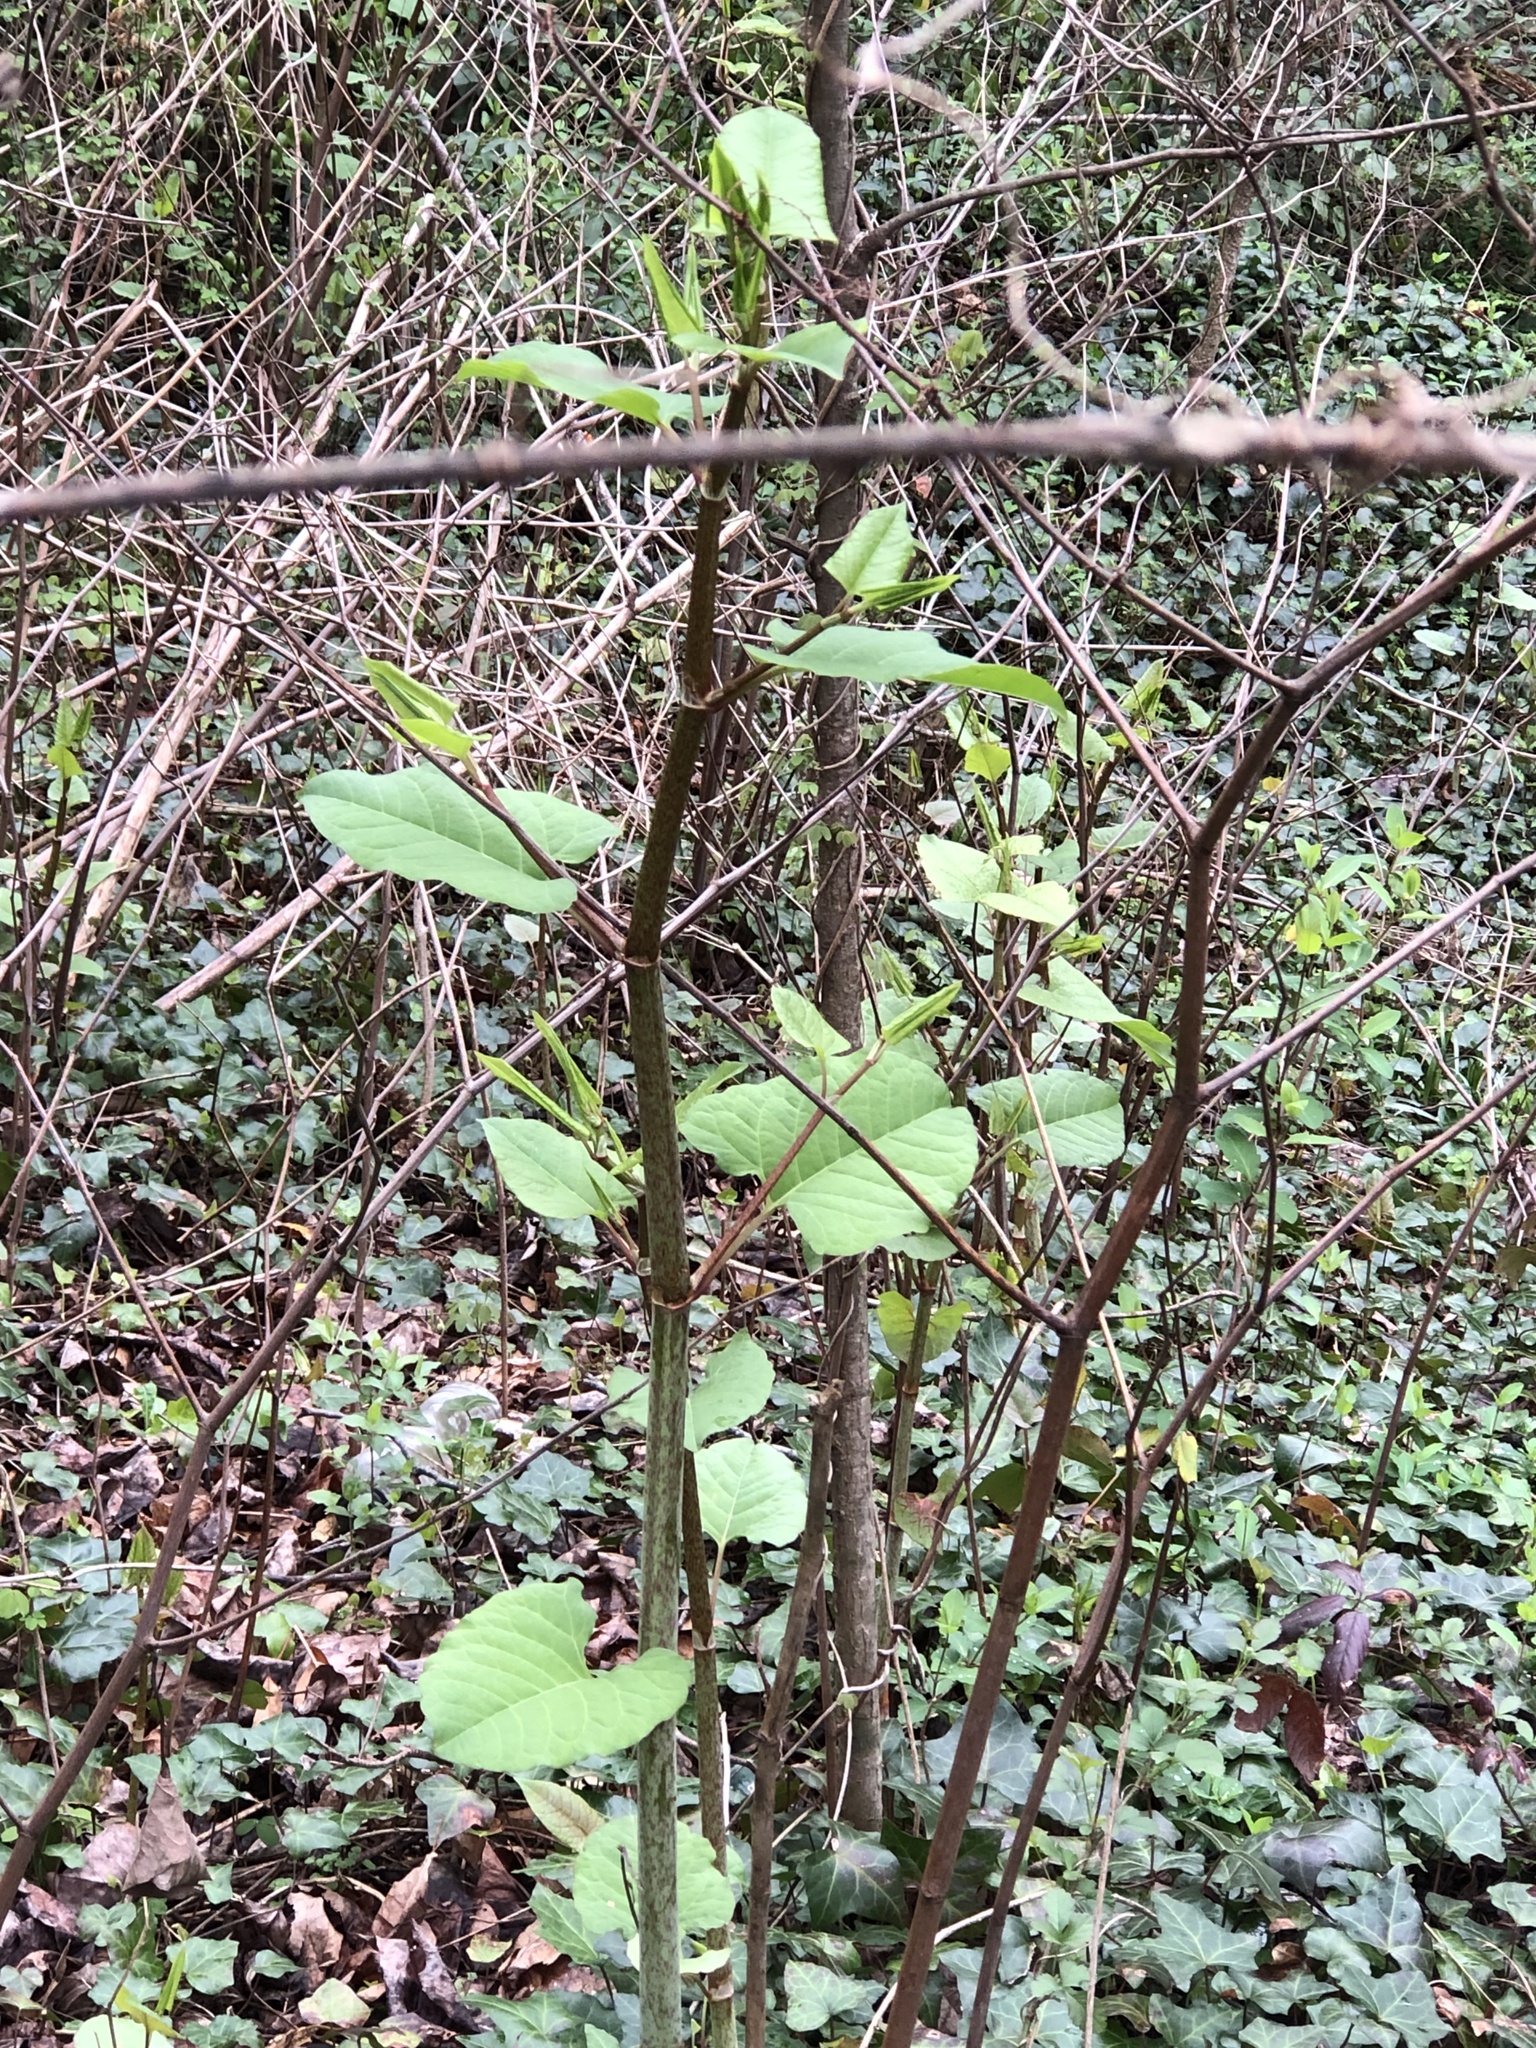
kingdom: Plantae
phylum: Tracheophyta
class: Magnoliopsida
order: Caryophyllales
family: Polygonaceae
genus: Reynoutria
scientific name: Reynoutria japonica
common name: Japanese knotweed
